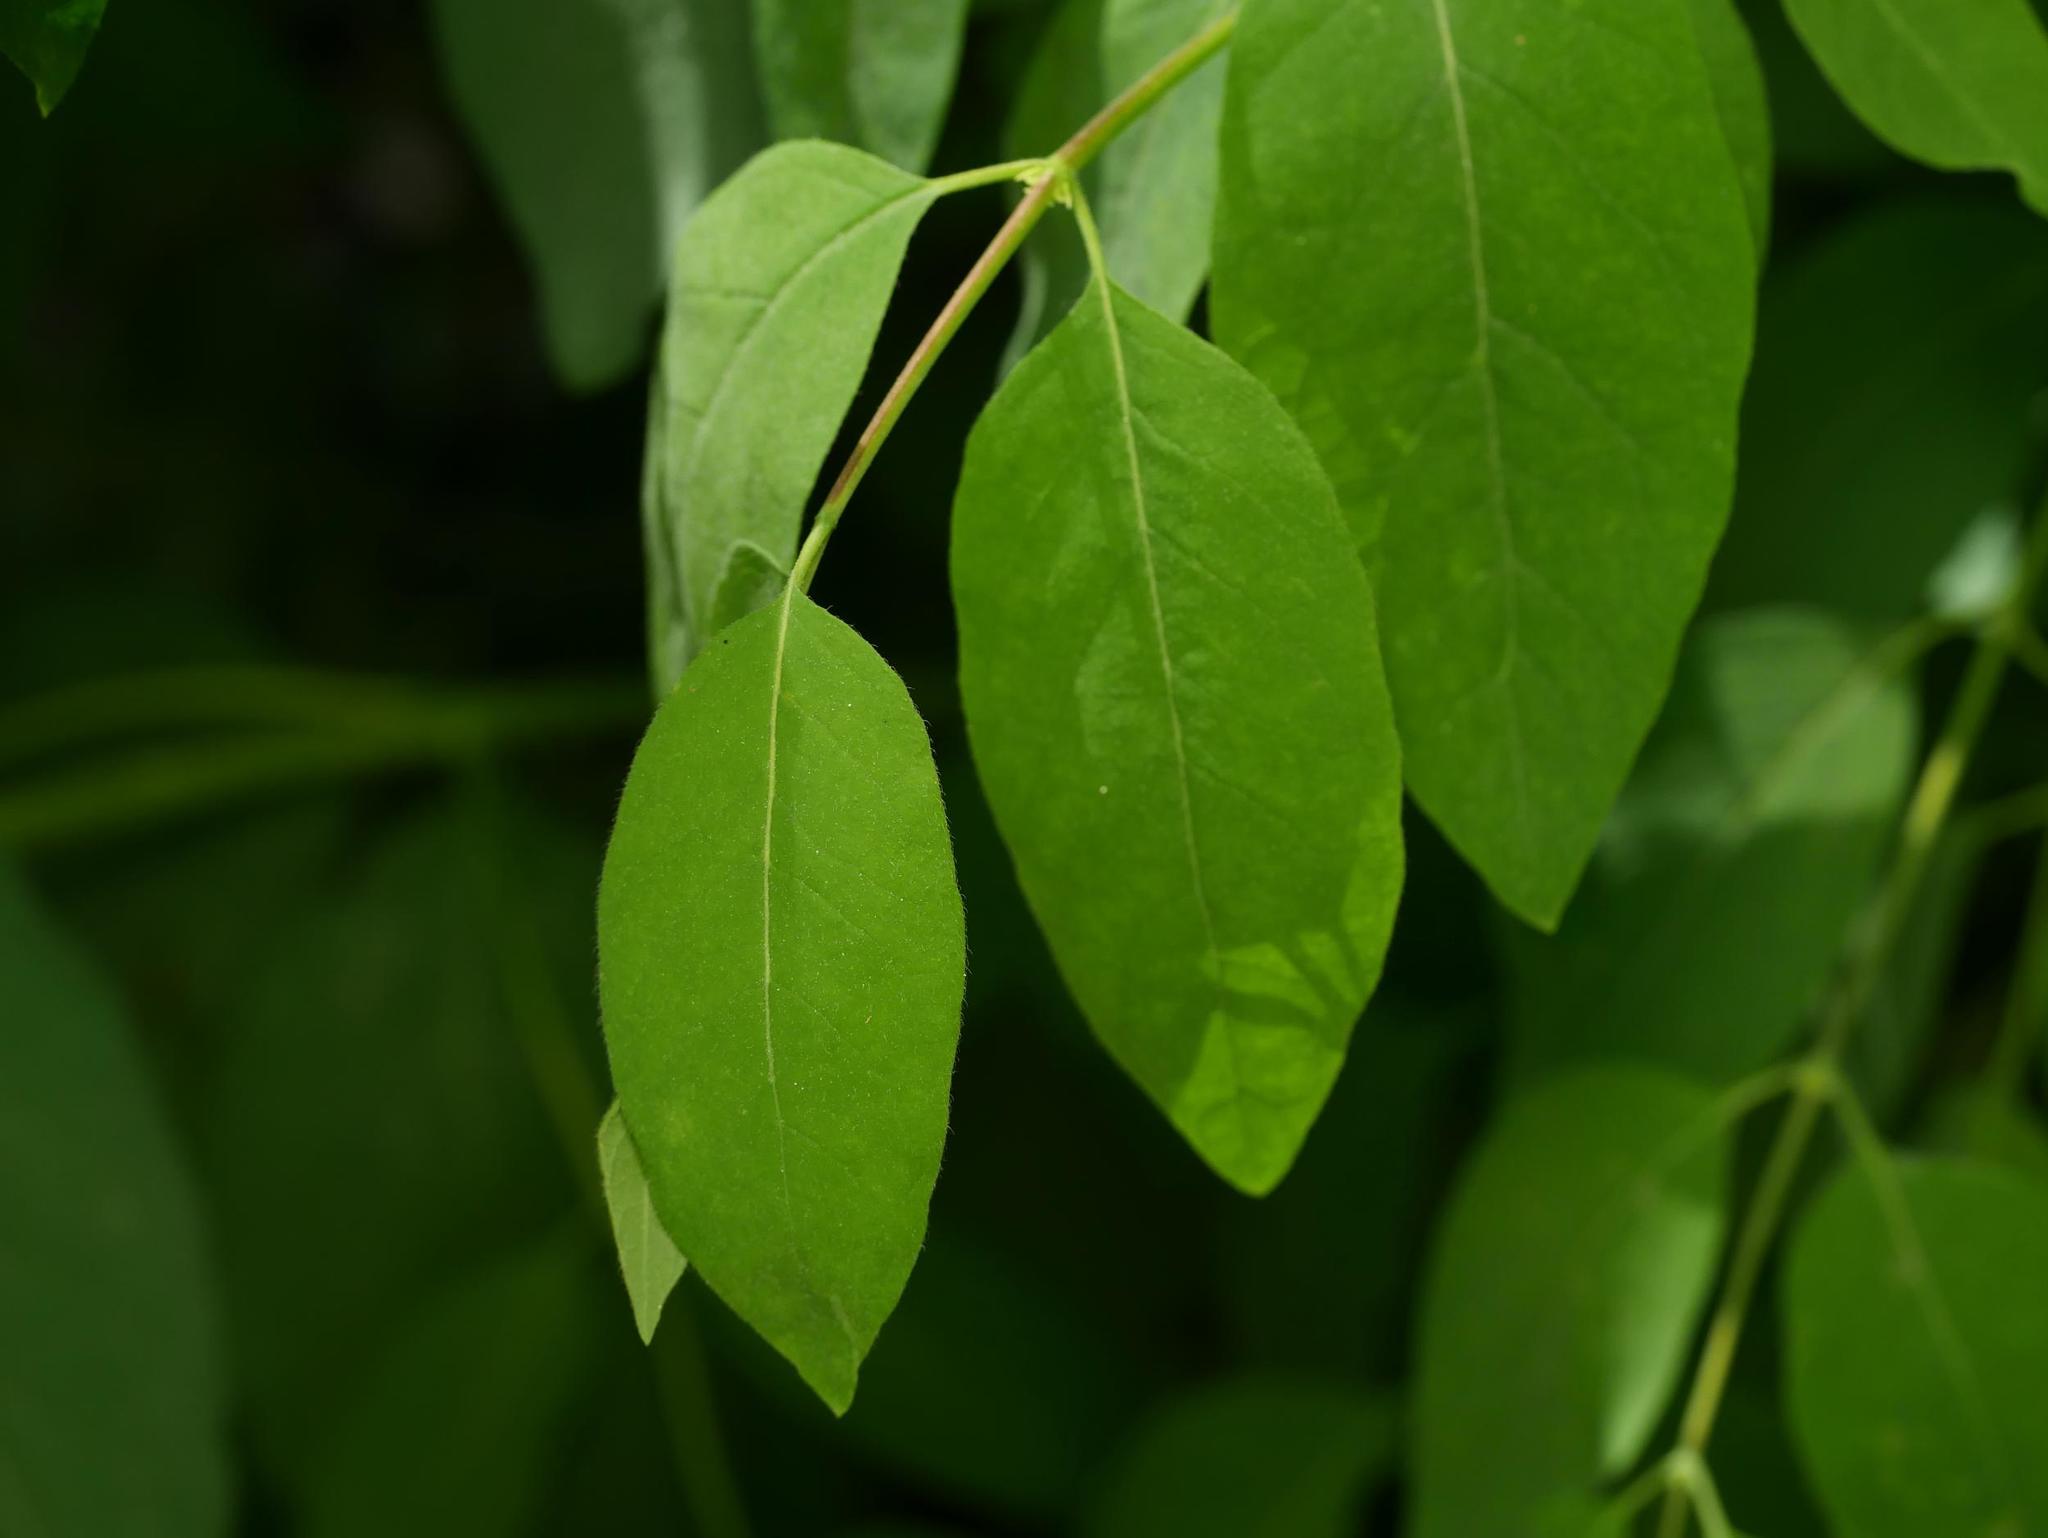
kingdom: Plantae
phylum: Tracheophyta
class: Magnoliopsida
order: Dipsacales
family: Caprifoliaceae
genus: Lonicera
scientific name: Lonicera tatarica
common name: Tatarian honeysuckle
